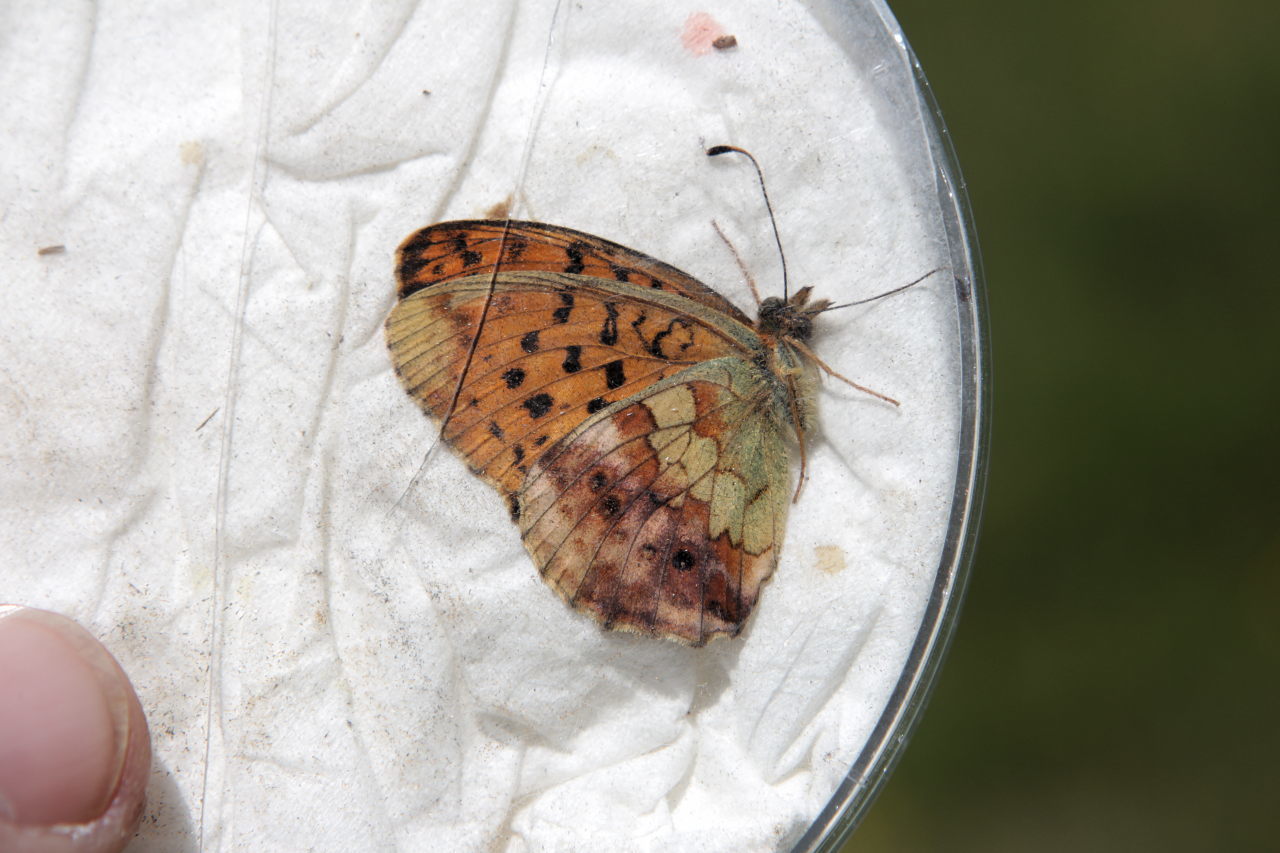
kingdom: Animalia
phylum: Arthropoda
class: Insecta
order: Lepidoptera
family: Nymphalidae
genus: Brenthis
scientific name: Brenthis daphne
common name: Marbled fritillary
